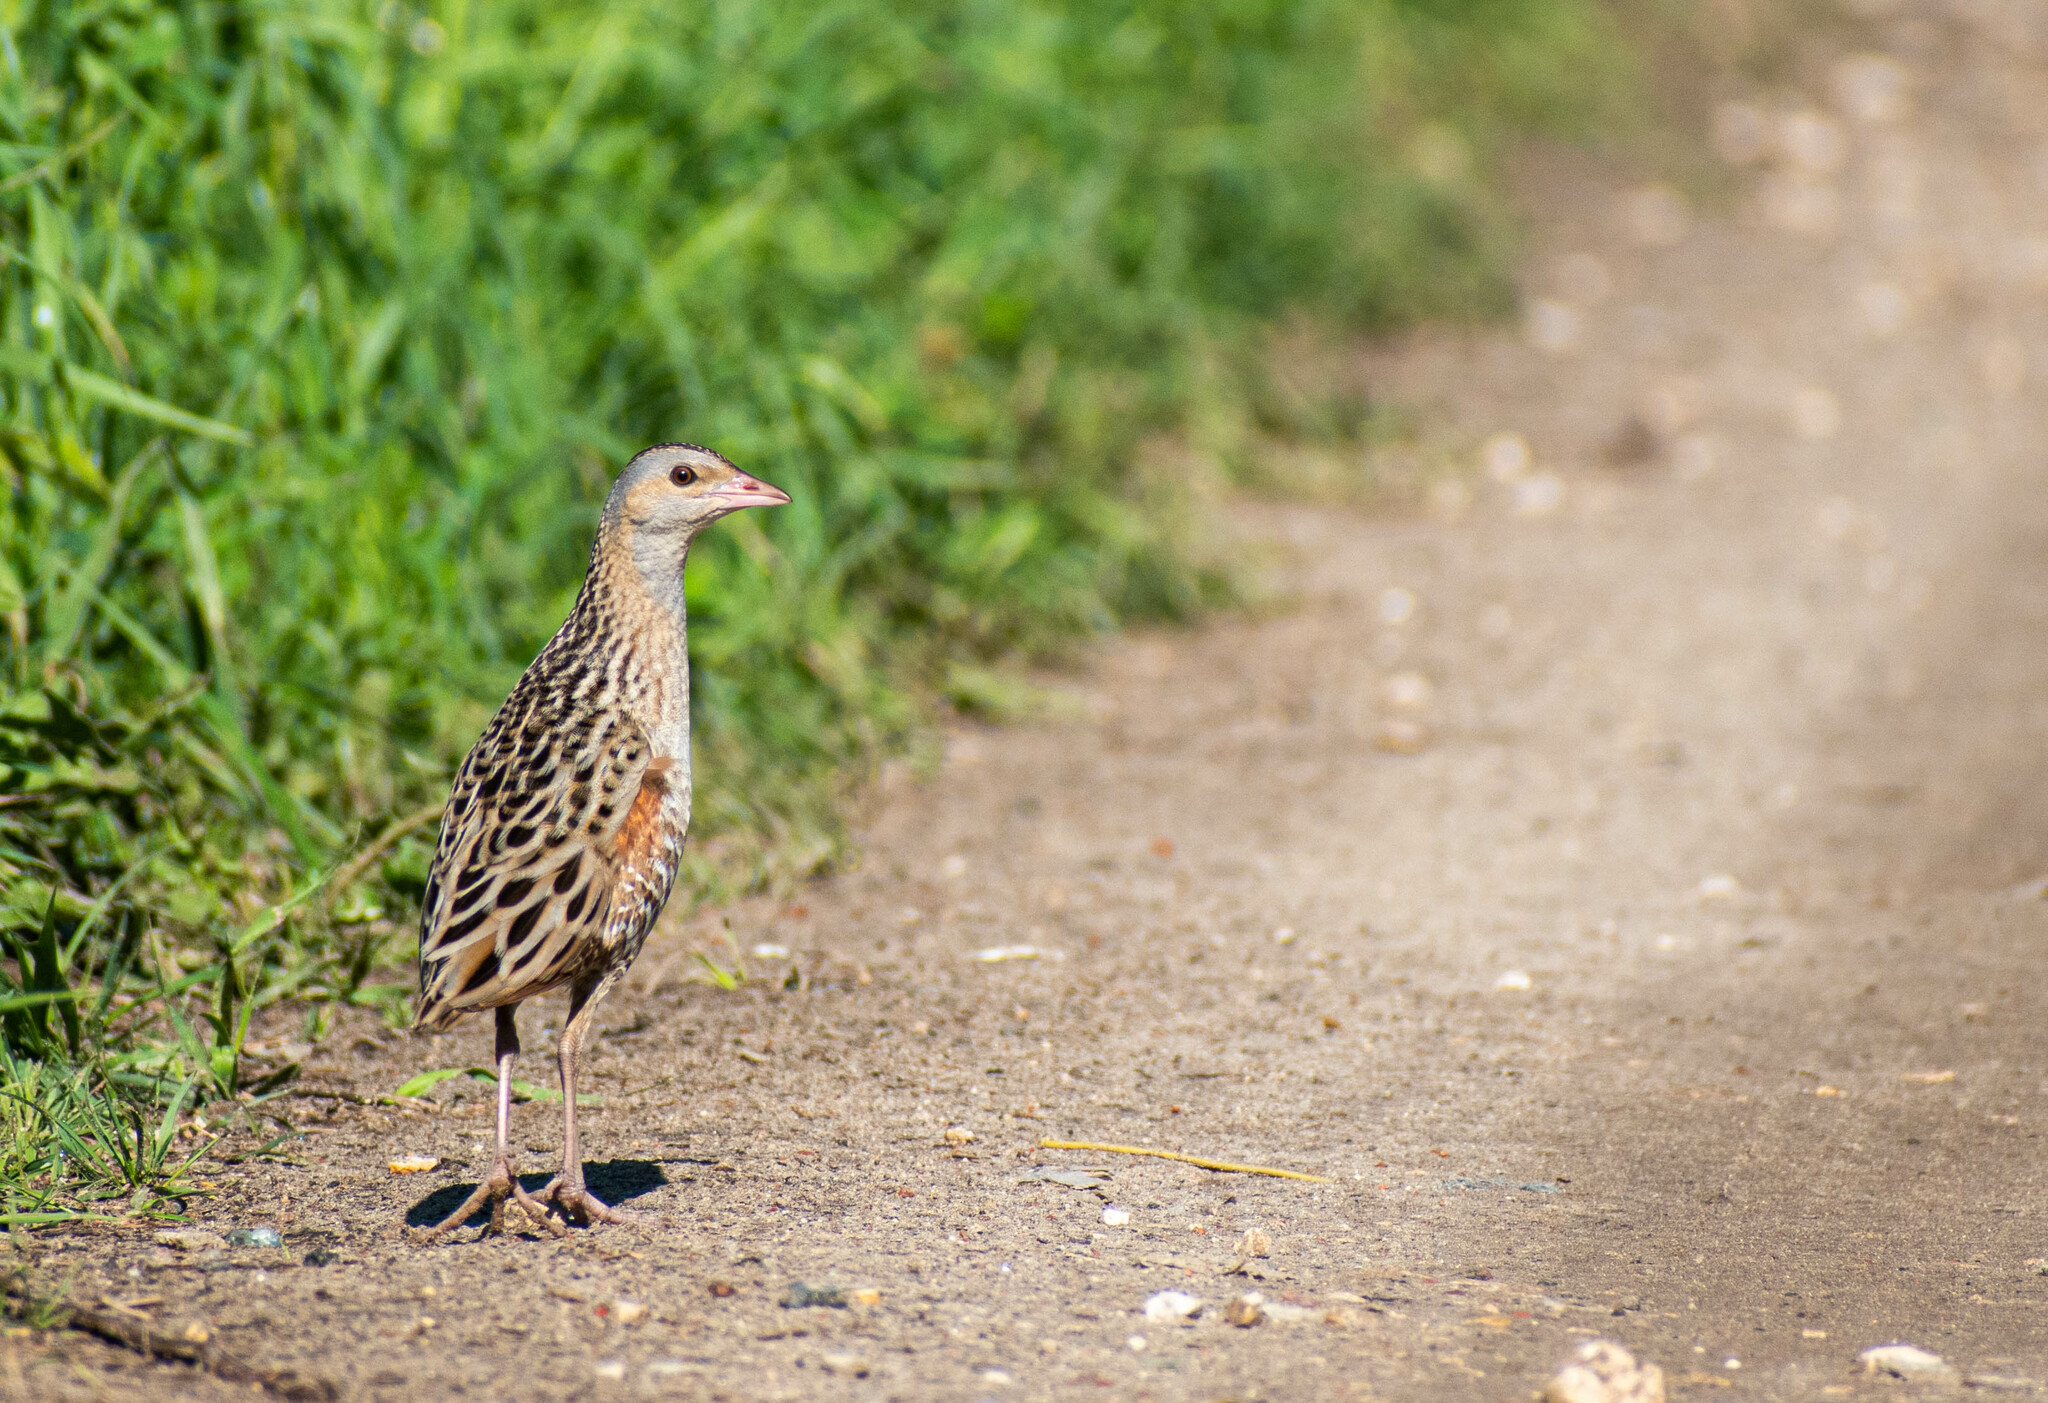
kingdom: Animalia
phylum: Chordata
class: Aves
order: Gruiformes
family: Rallidae
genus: Crex
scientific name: Crex crex
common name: Corn crake
